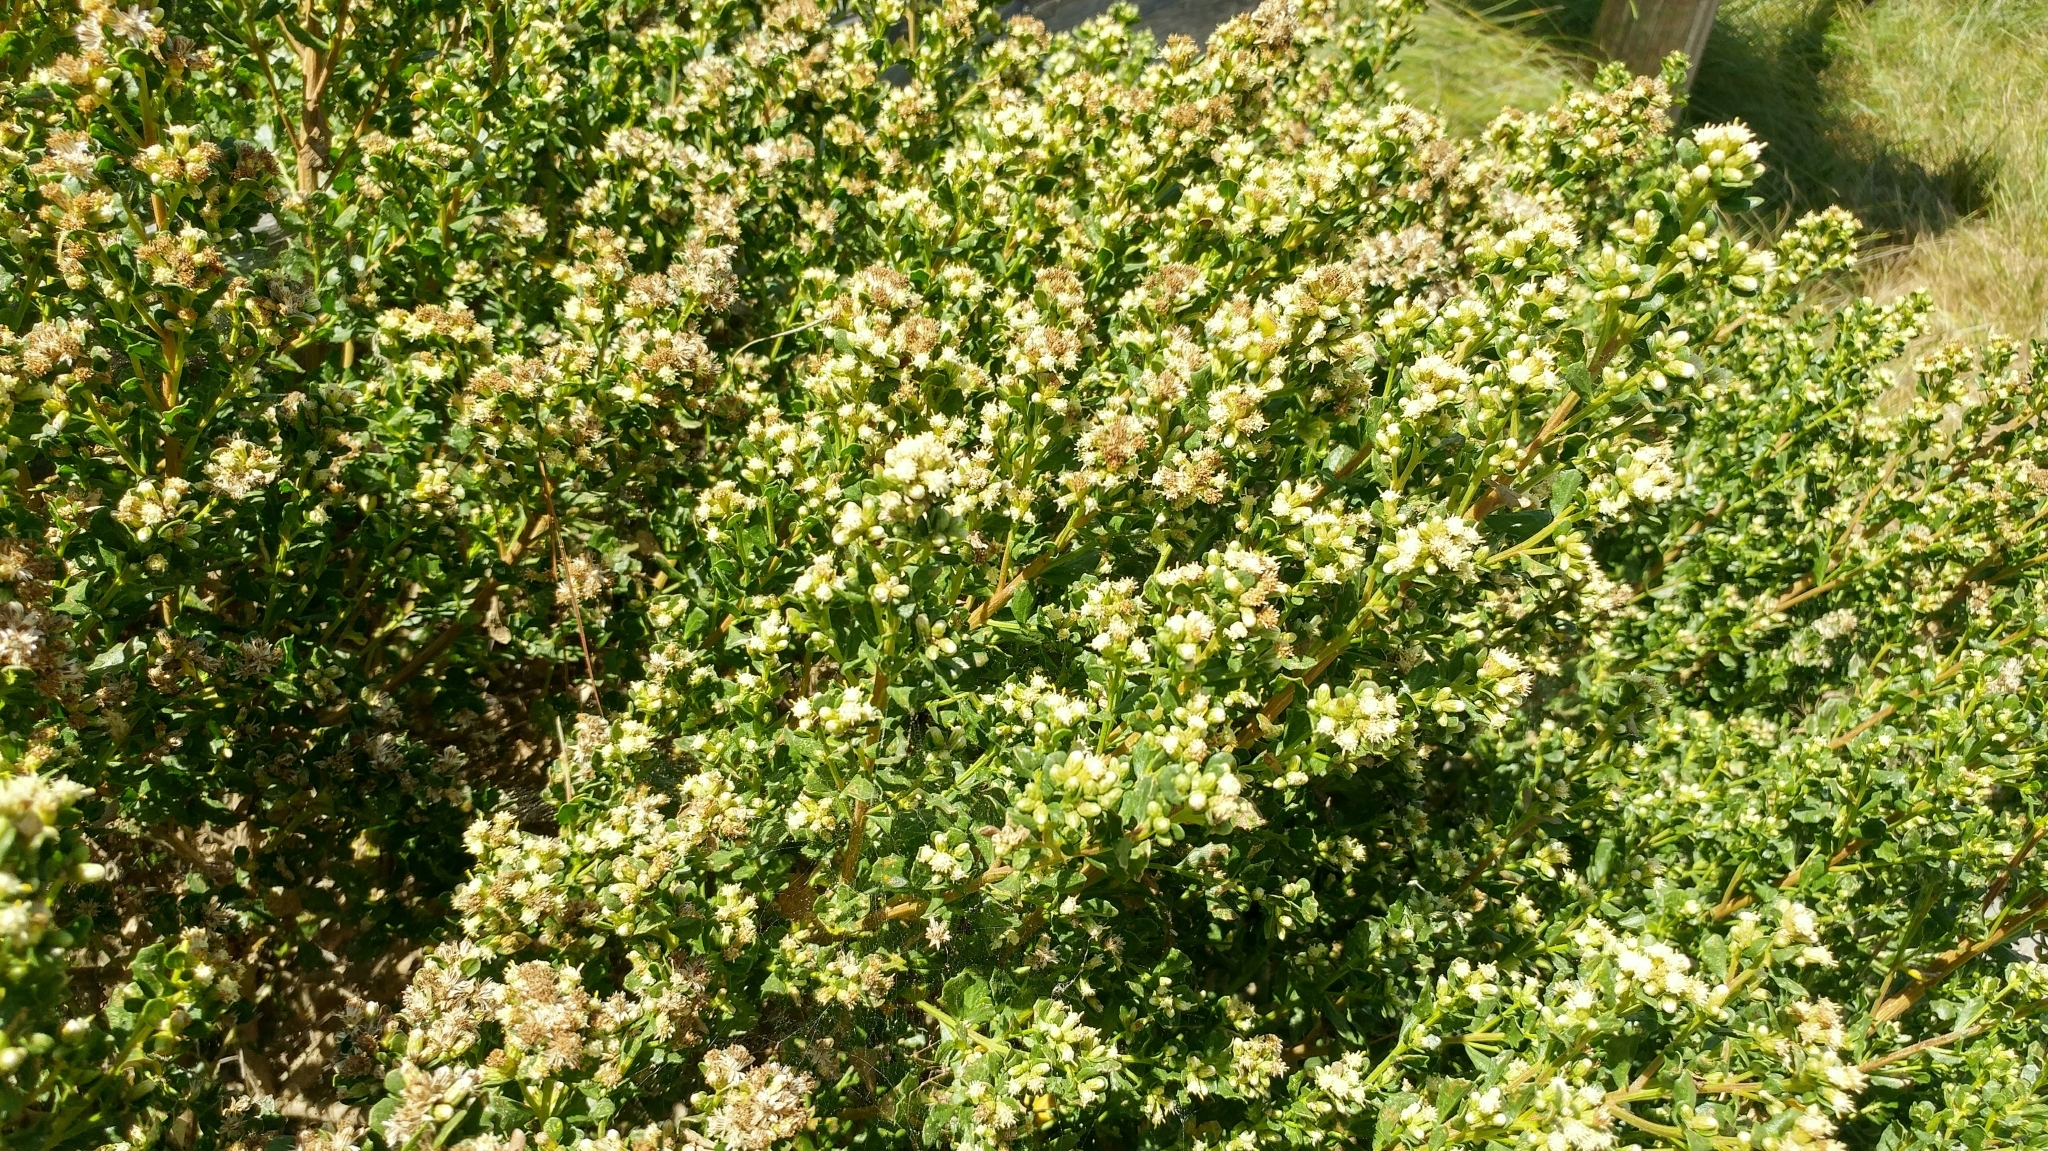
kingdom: Plantae
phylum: Tracheophyta
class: Magnoliopsida
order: Asterales
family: Asteraceae
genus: Baccharis
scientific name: Baccharis pilularis
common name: Coyotebrush
